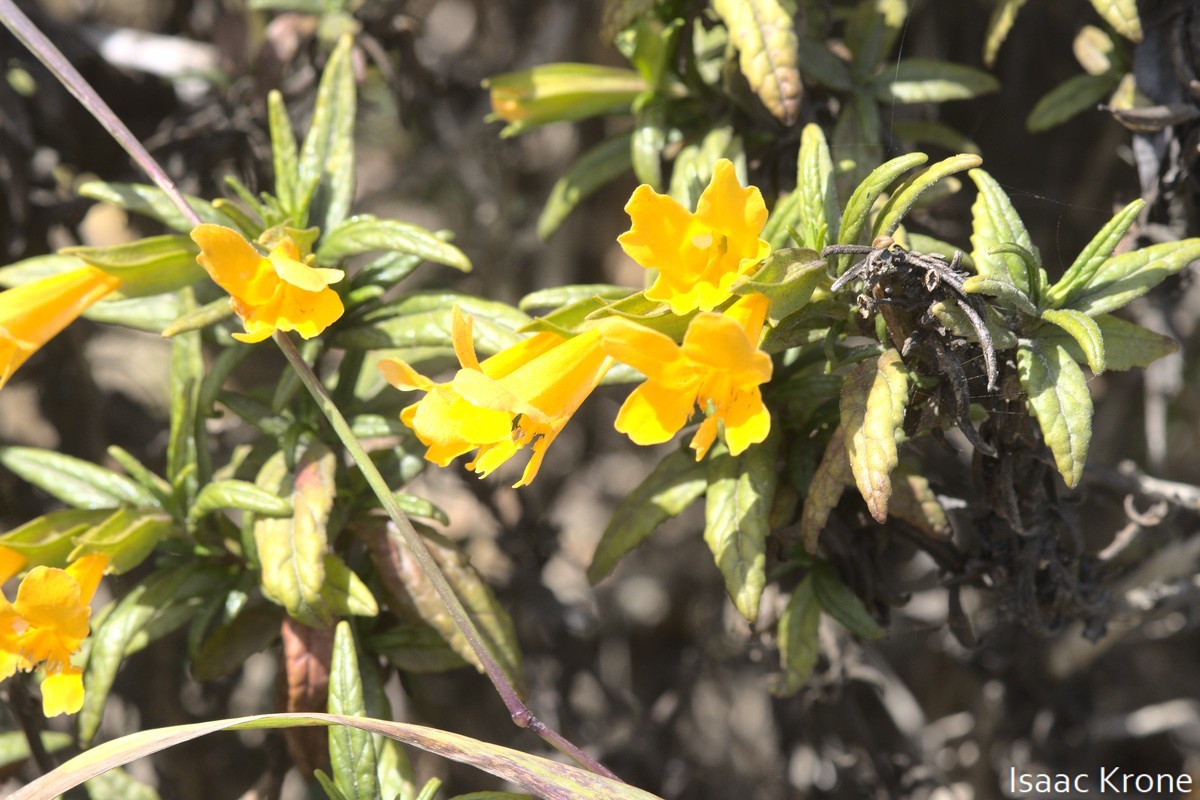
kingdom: Plantae
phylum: Tracheophyta
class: Magnoliopsida
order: Lamiales
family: Phrymaceae
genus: Diplacus
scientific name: Diplacus aurantiacus
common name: Bush monkey-flower
